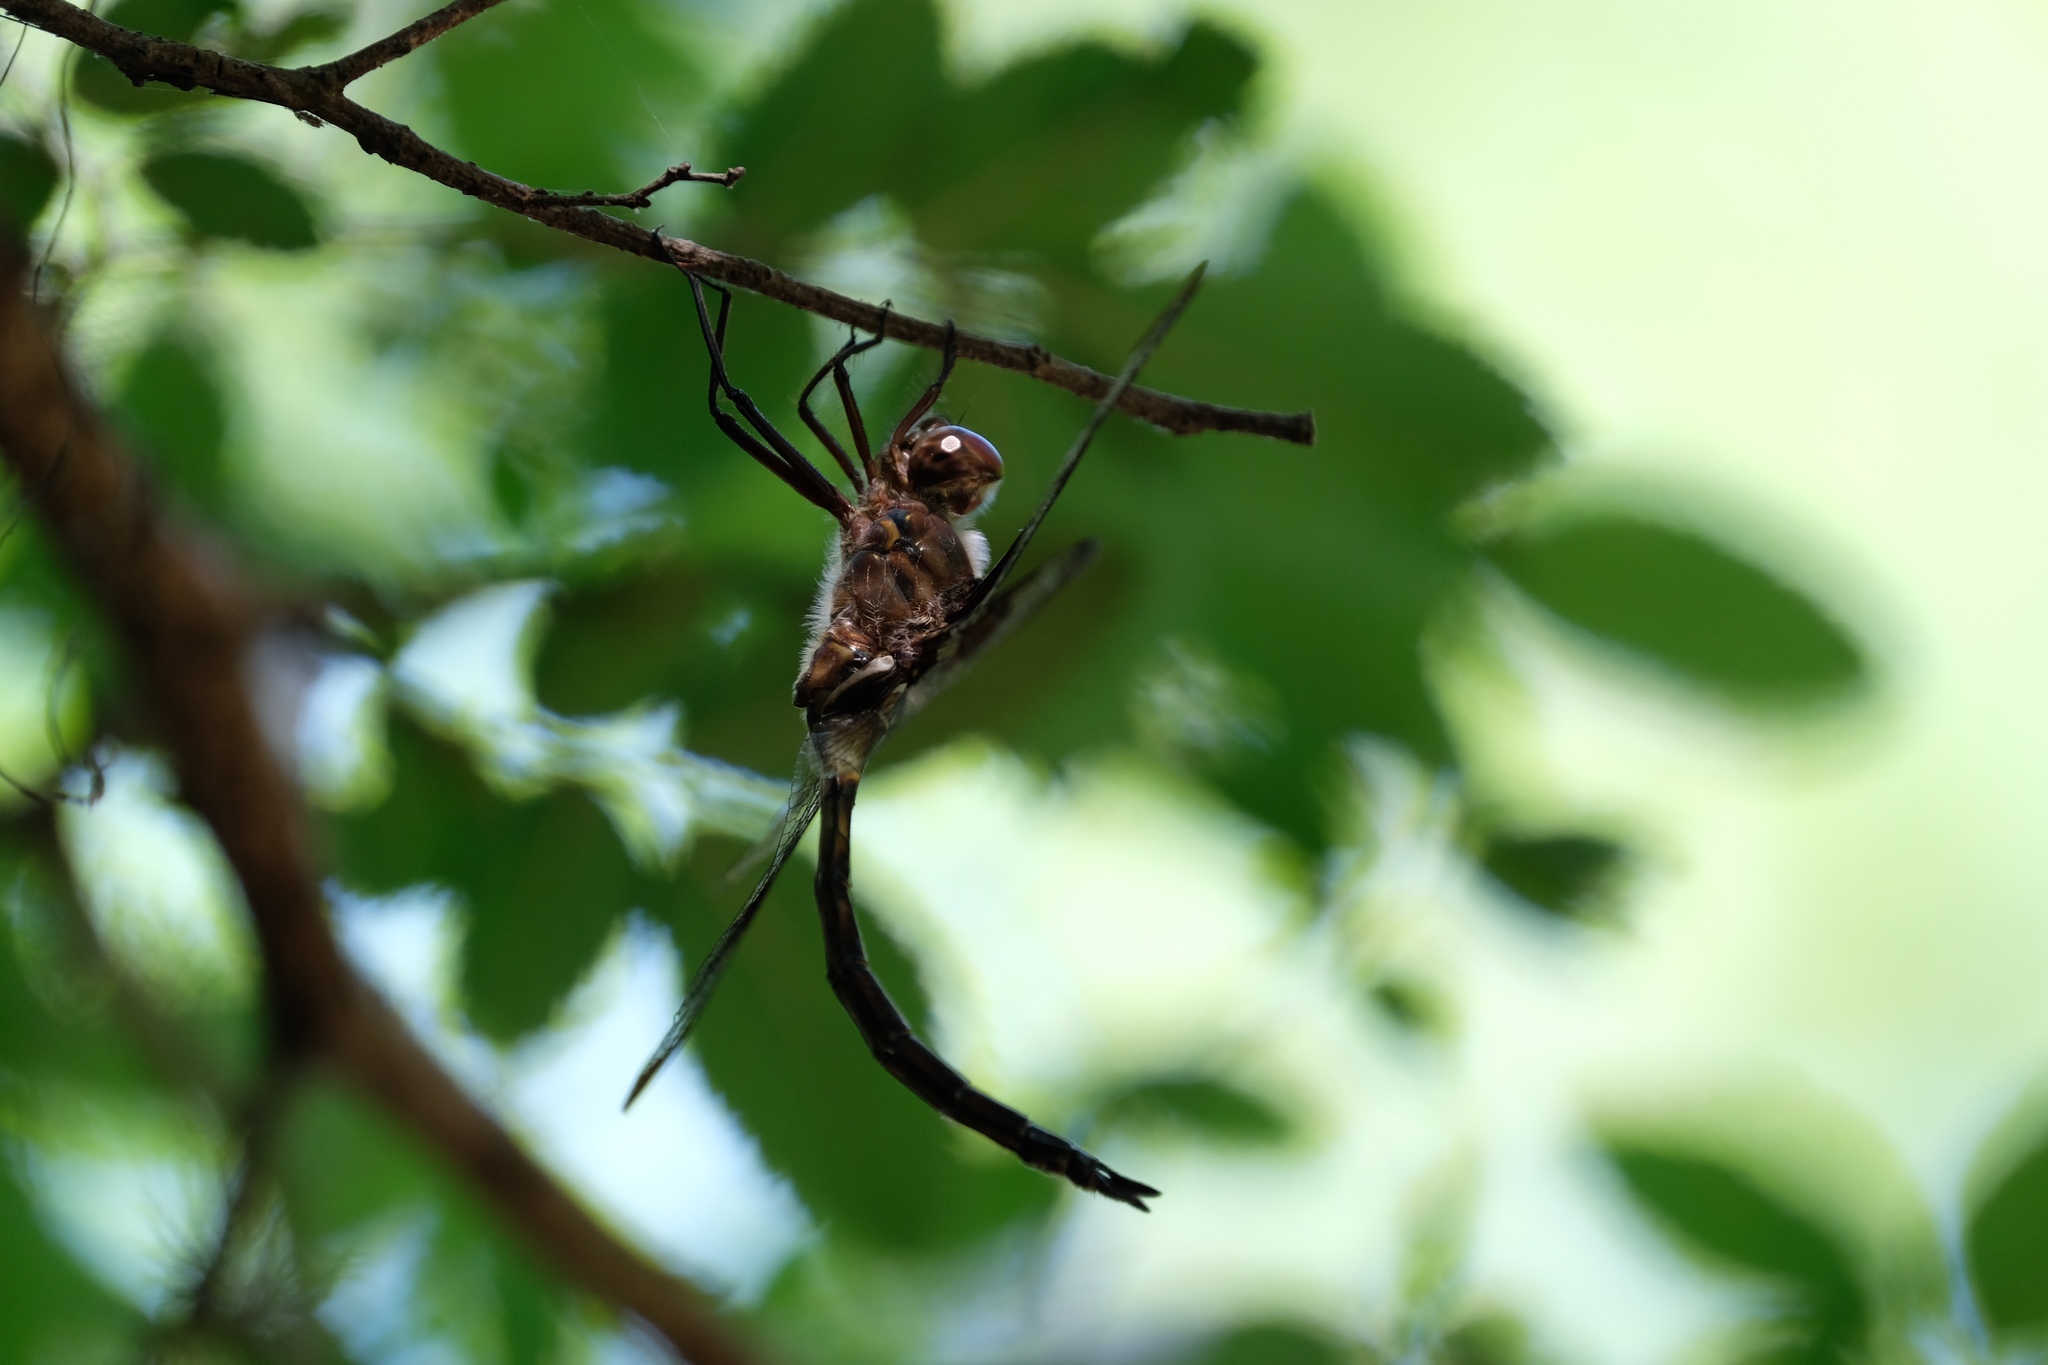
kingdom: Animalia
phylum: Arthropoda
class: Insecta
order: Odonata
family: Corduliidae
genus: Epitheca
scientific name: Epitheca princeps
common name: Prince baskettail
